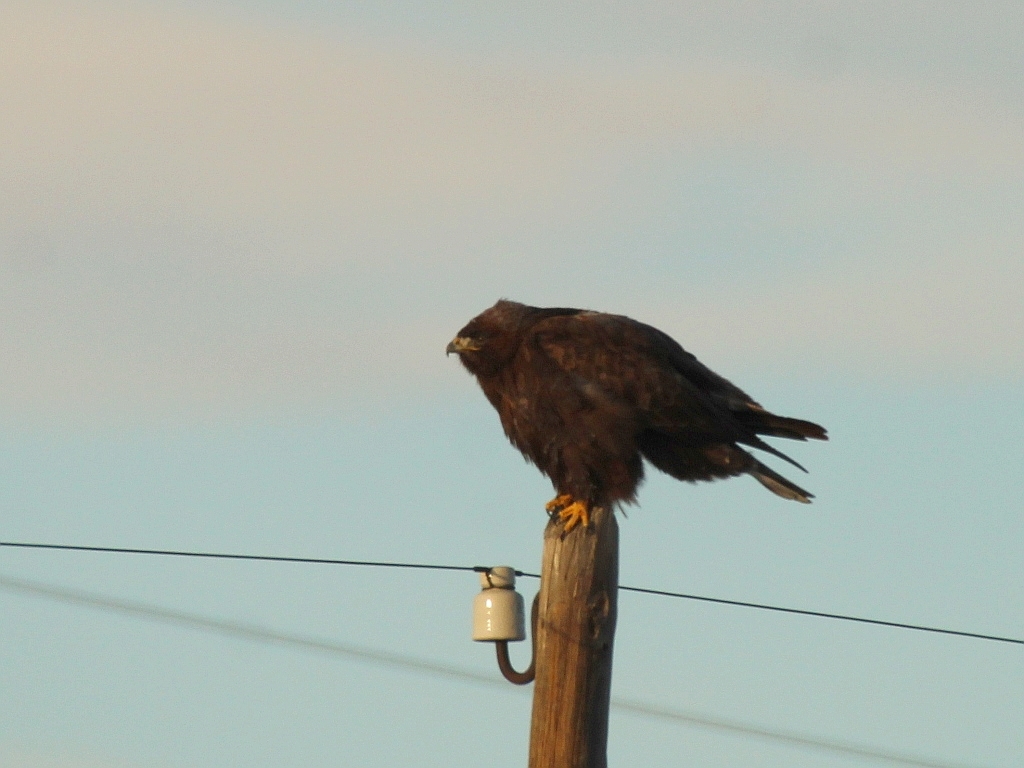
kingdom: Animalia
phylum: Chordata
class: Aves
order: Accipitriformes
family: Accipitridae
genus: Buteo
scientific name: Buteo hemilasius
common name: Upland buzzard
